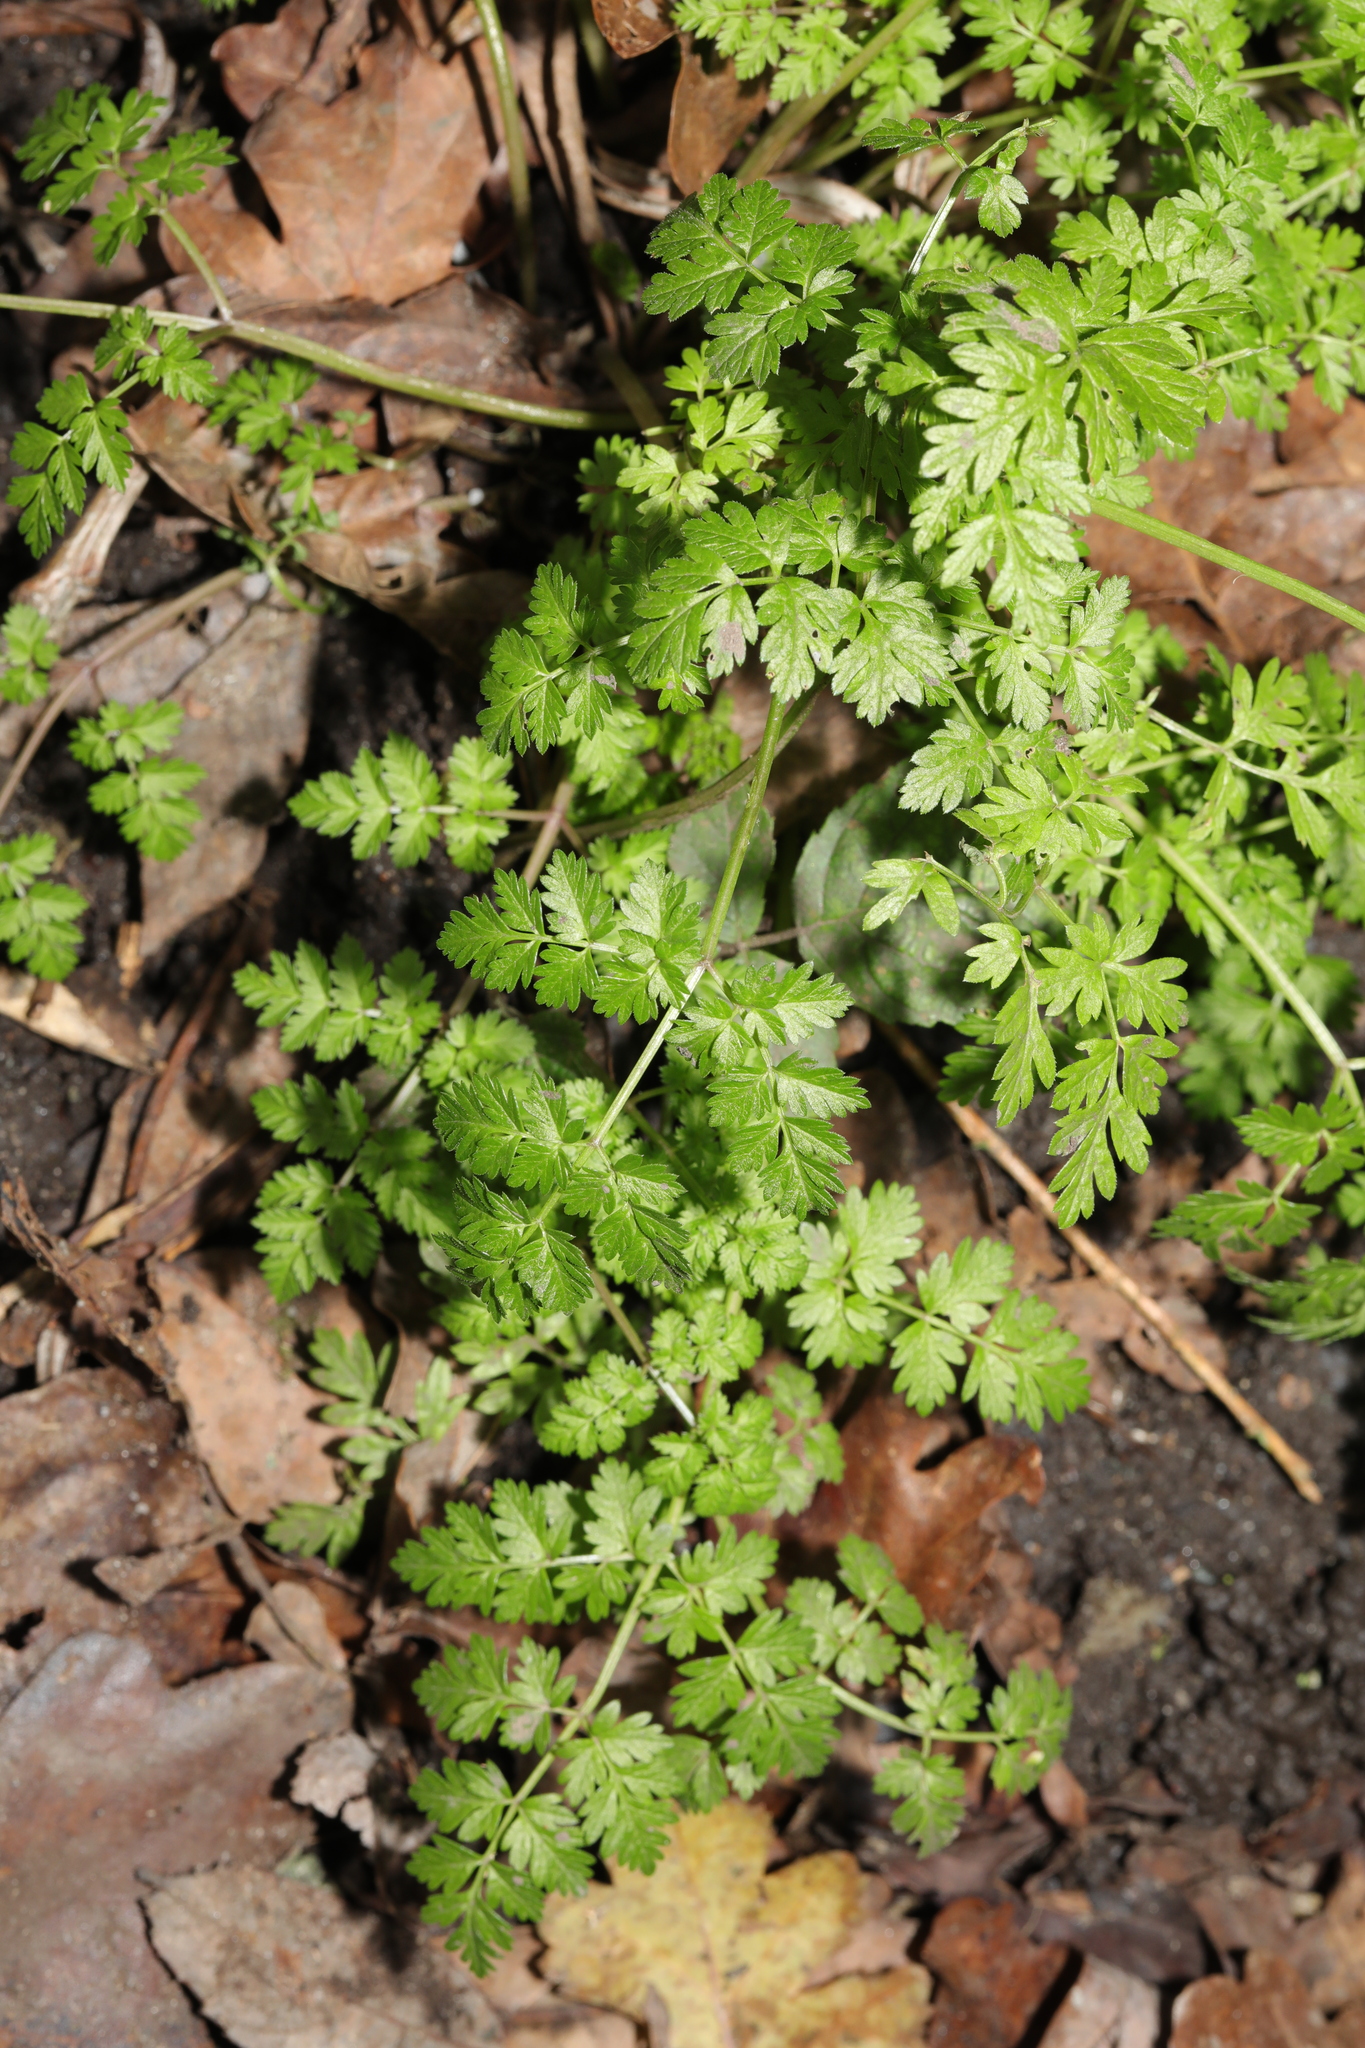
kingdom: Plantae
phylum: Tracheophyta
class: Magnoliopsida
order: Apiales
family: Apiaceae
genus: Anthriscus
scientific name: Anthriscus sylvestris
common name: Cow parsley
